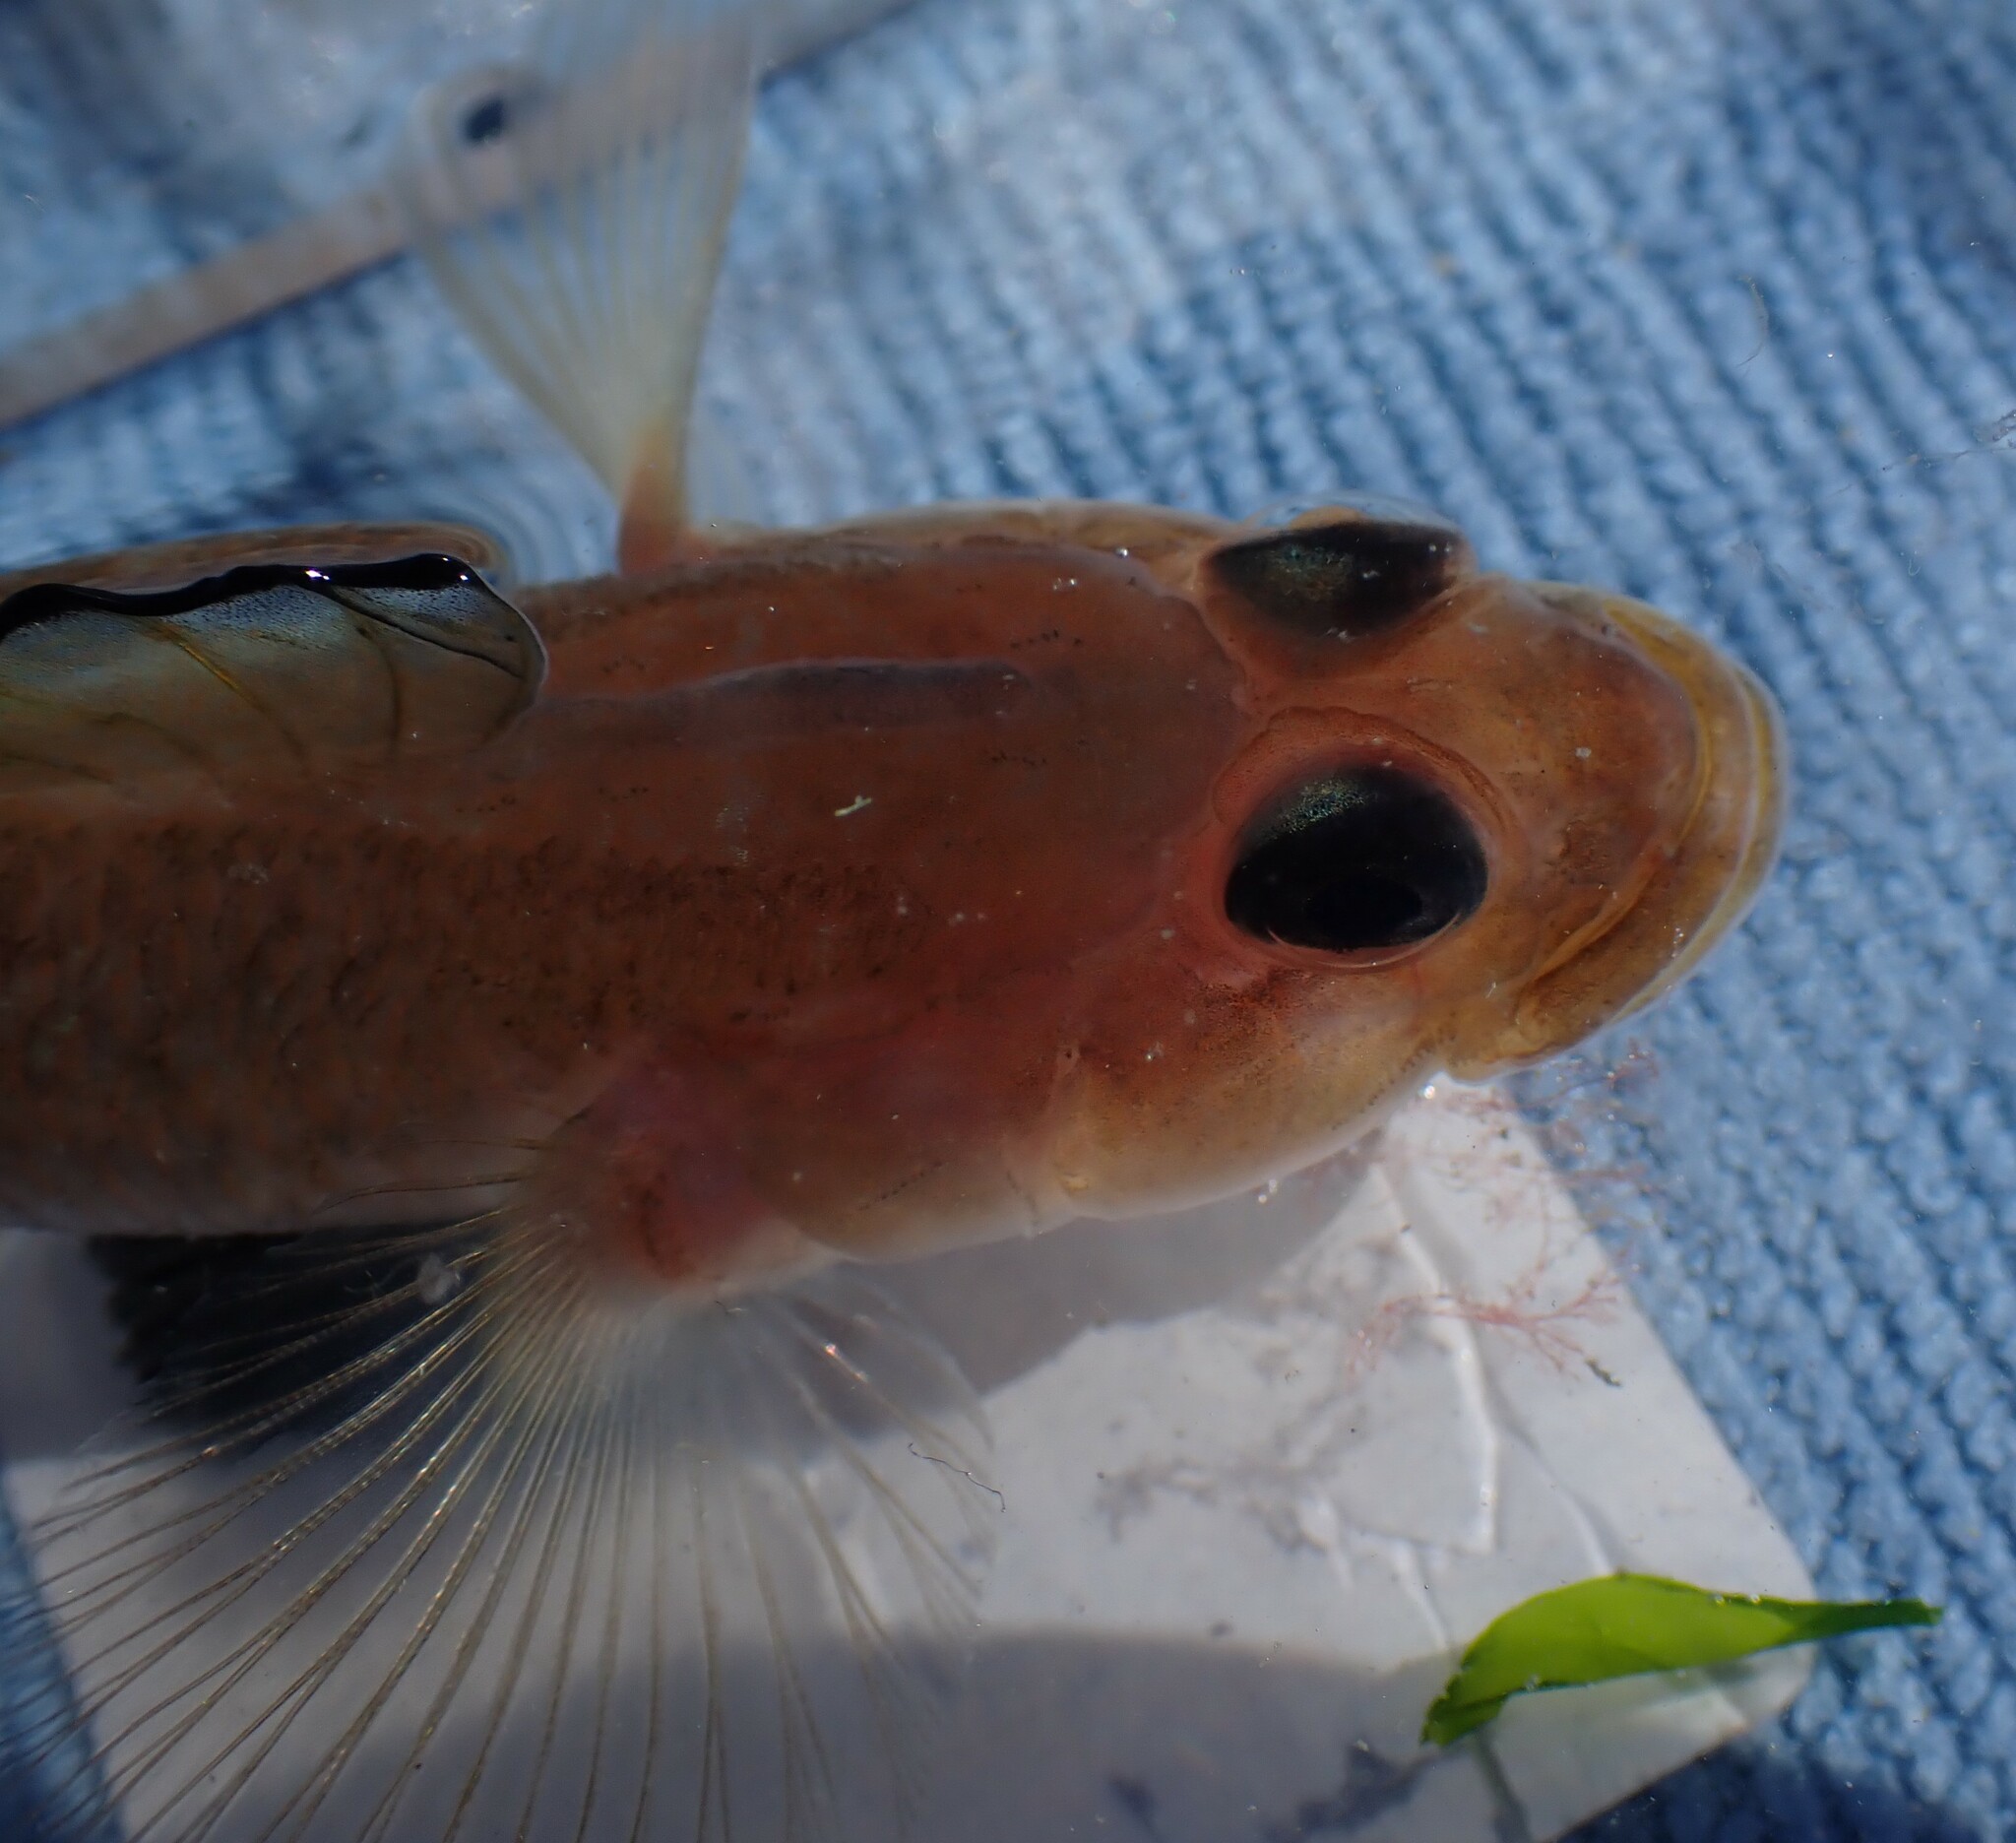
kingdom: Animalia
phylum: Chordata
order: Perciformes
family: Gobiidae
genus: Rhinogobiops
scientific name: Rhinogobiops nicholsii
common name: Blackeye goby
